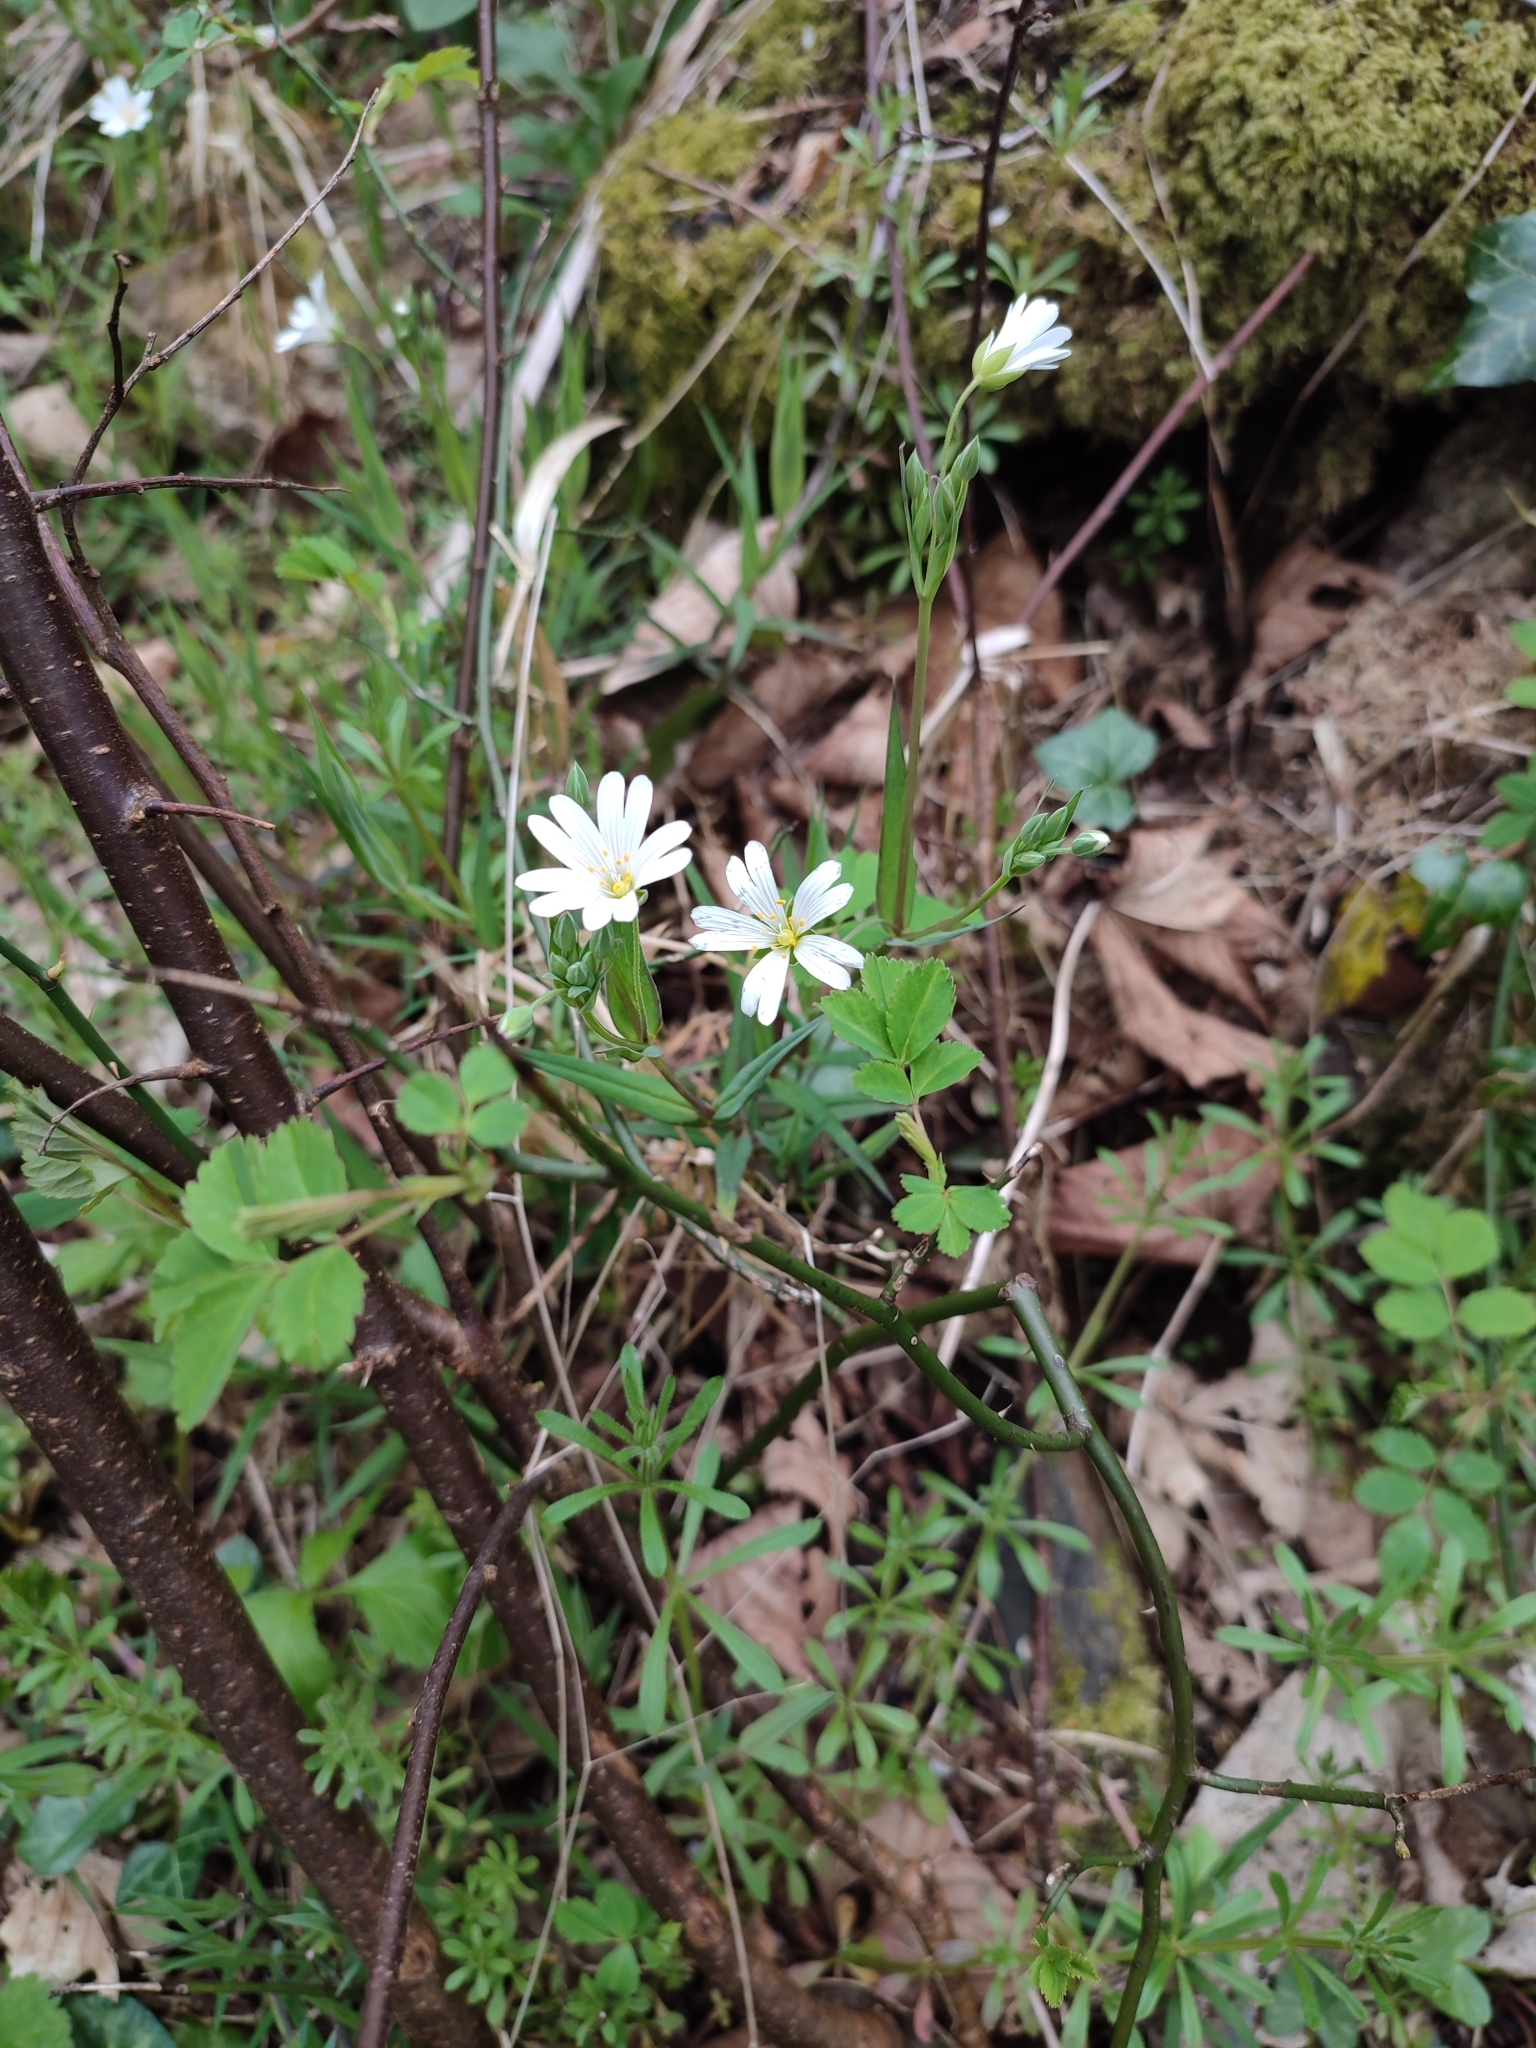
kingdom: Plantae
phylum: Tracheophyta
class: Magnoliopsida
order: Caryophyllales
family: Caryophyllaceae
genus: Rabelera
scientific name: Rabelera holostea
